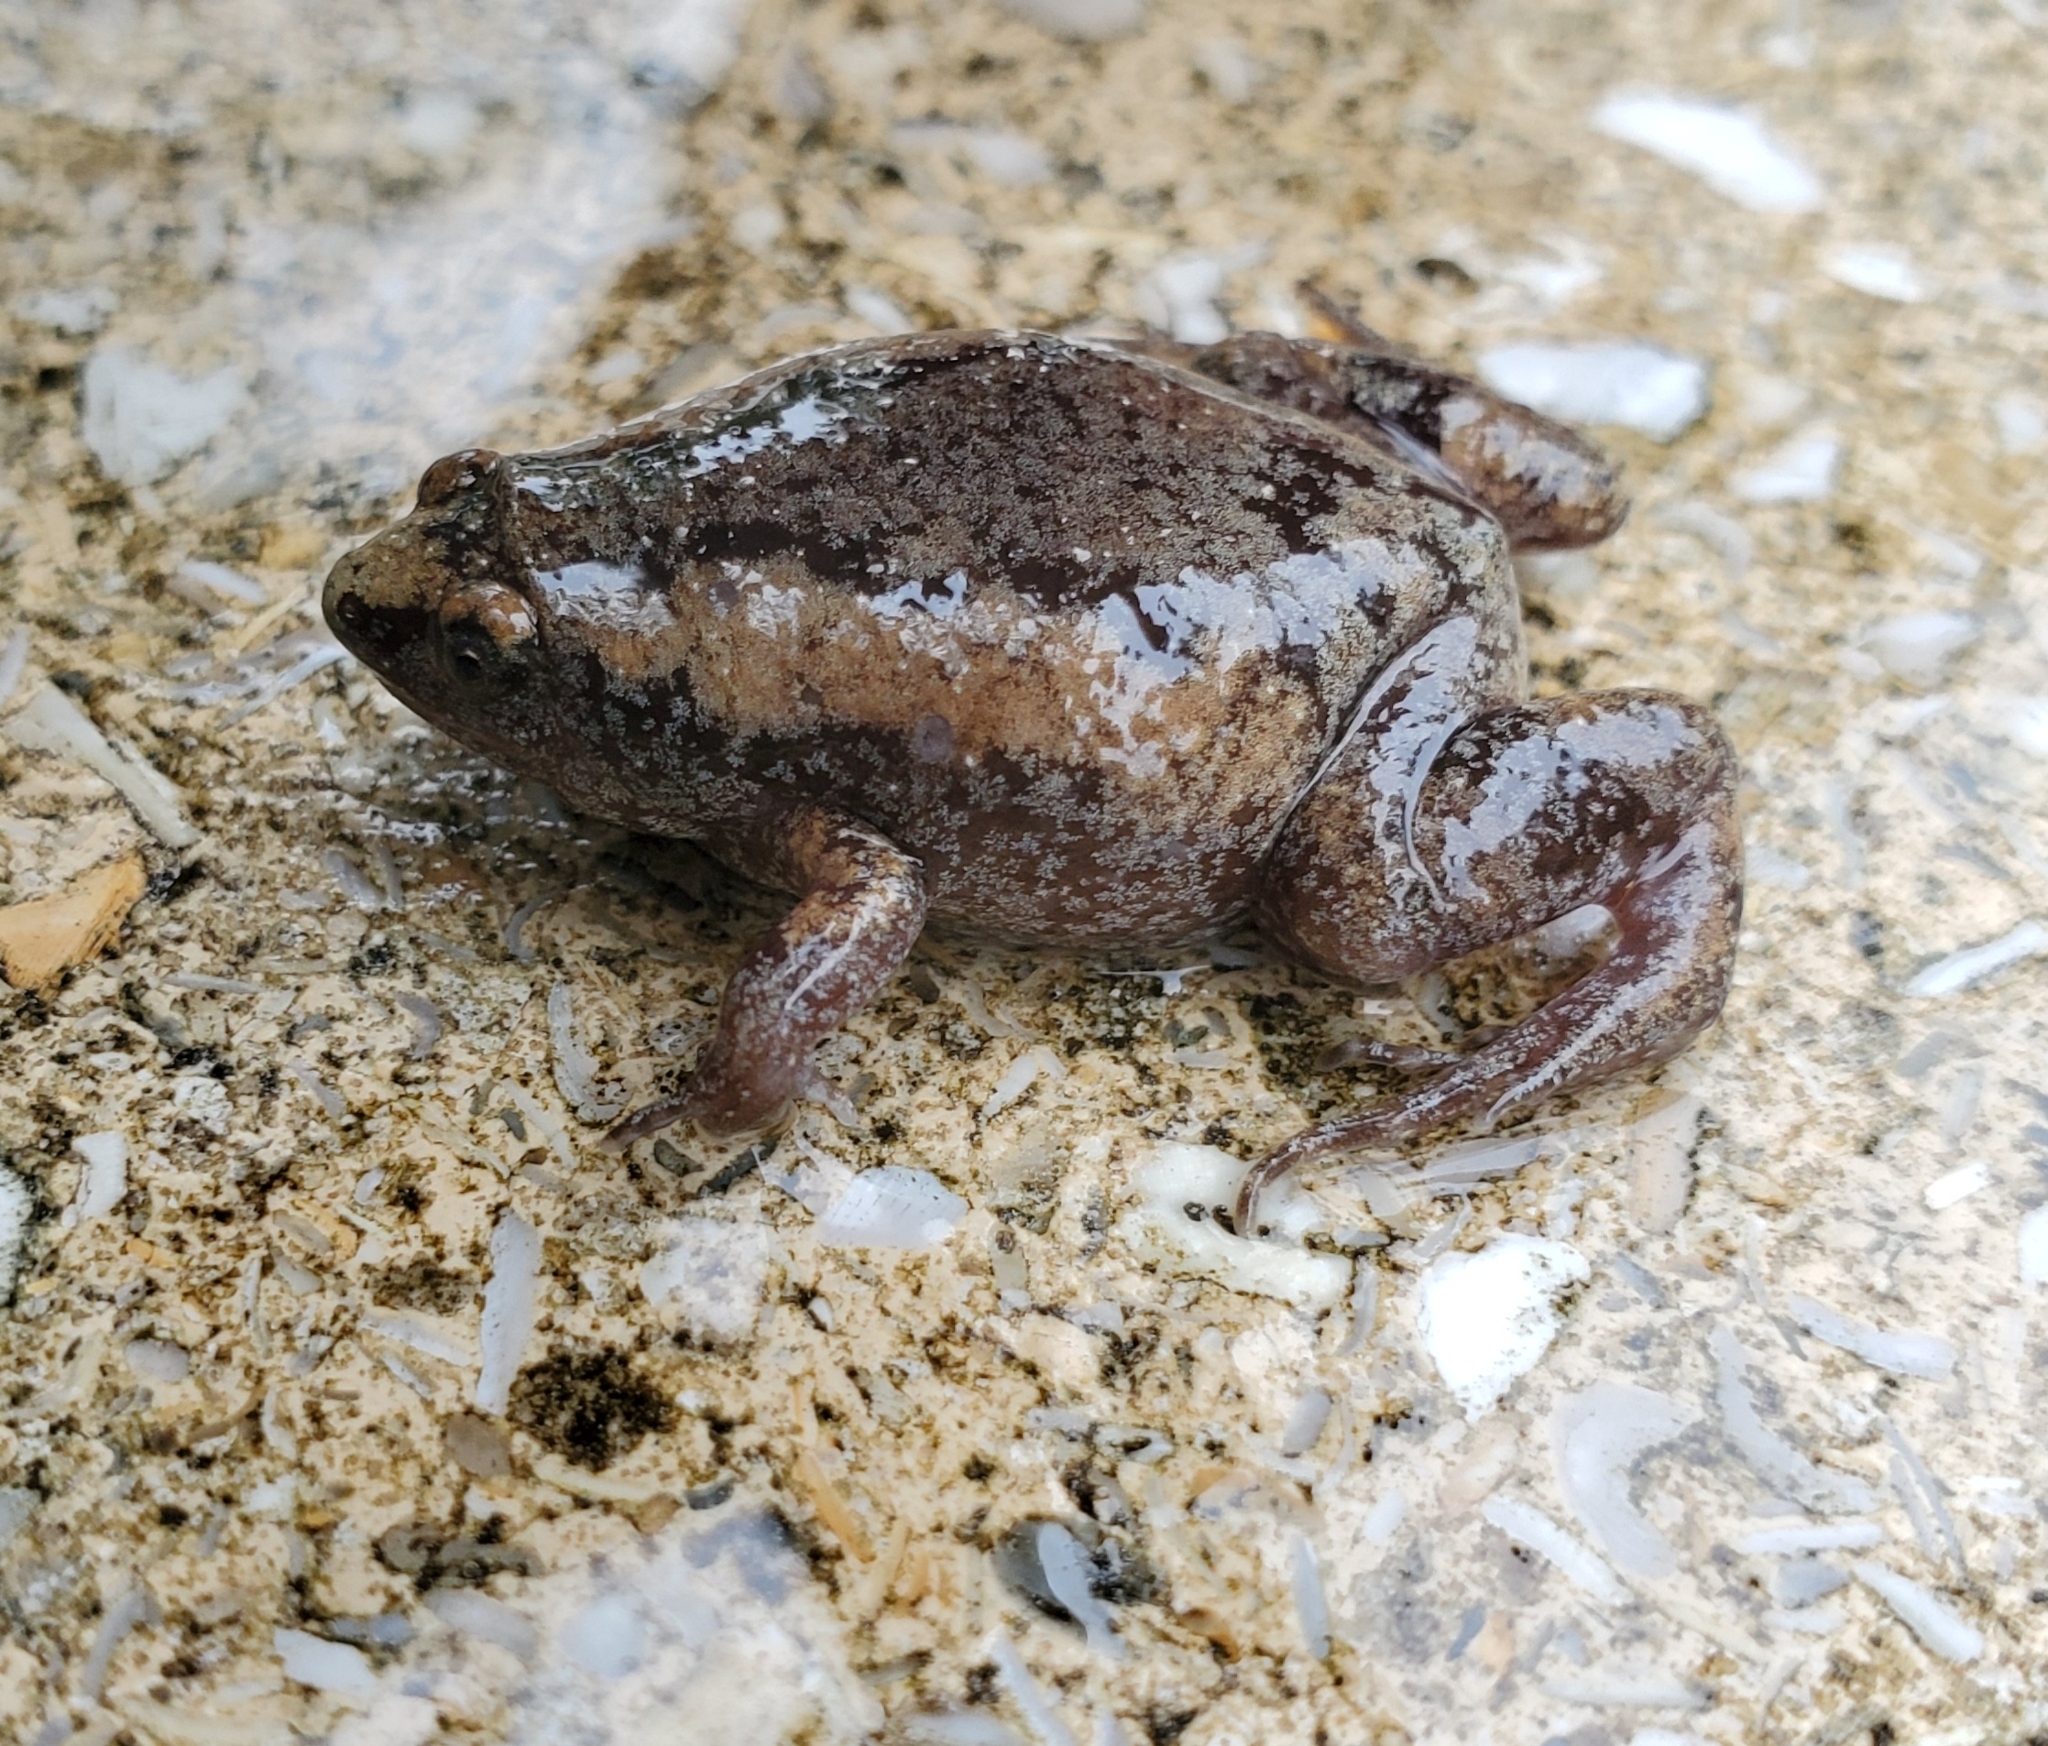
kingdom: Animalia
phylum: Chordata
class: Amphibia
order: Anura
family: Microhylidae
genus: Gastrophryne
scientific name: Gastrophryne carolinensis
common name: Eastern narrowmouth toad
